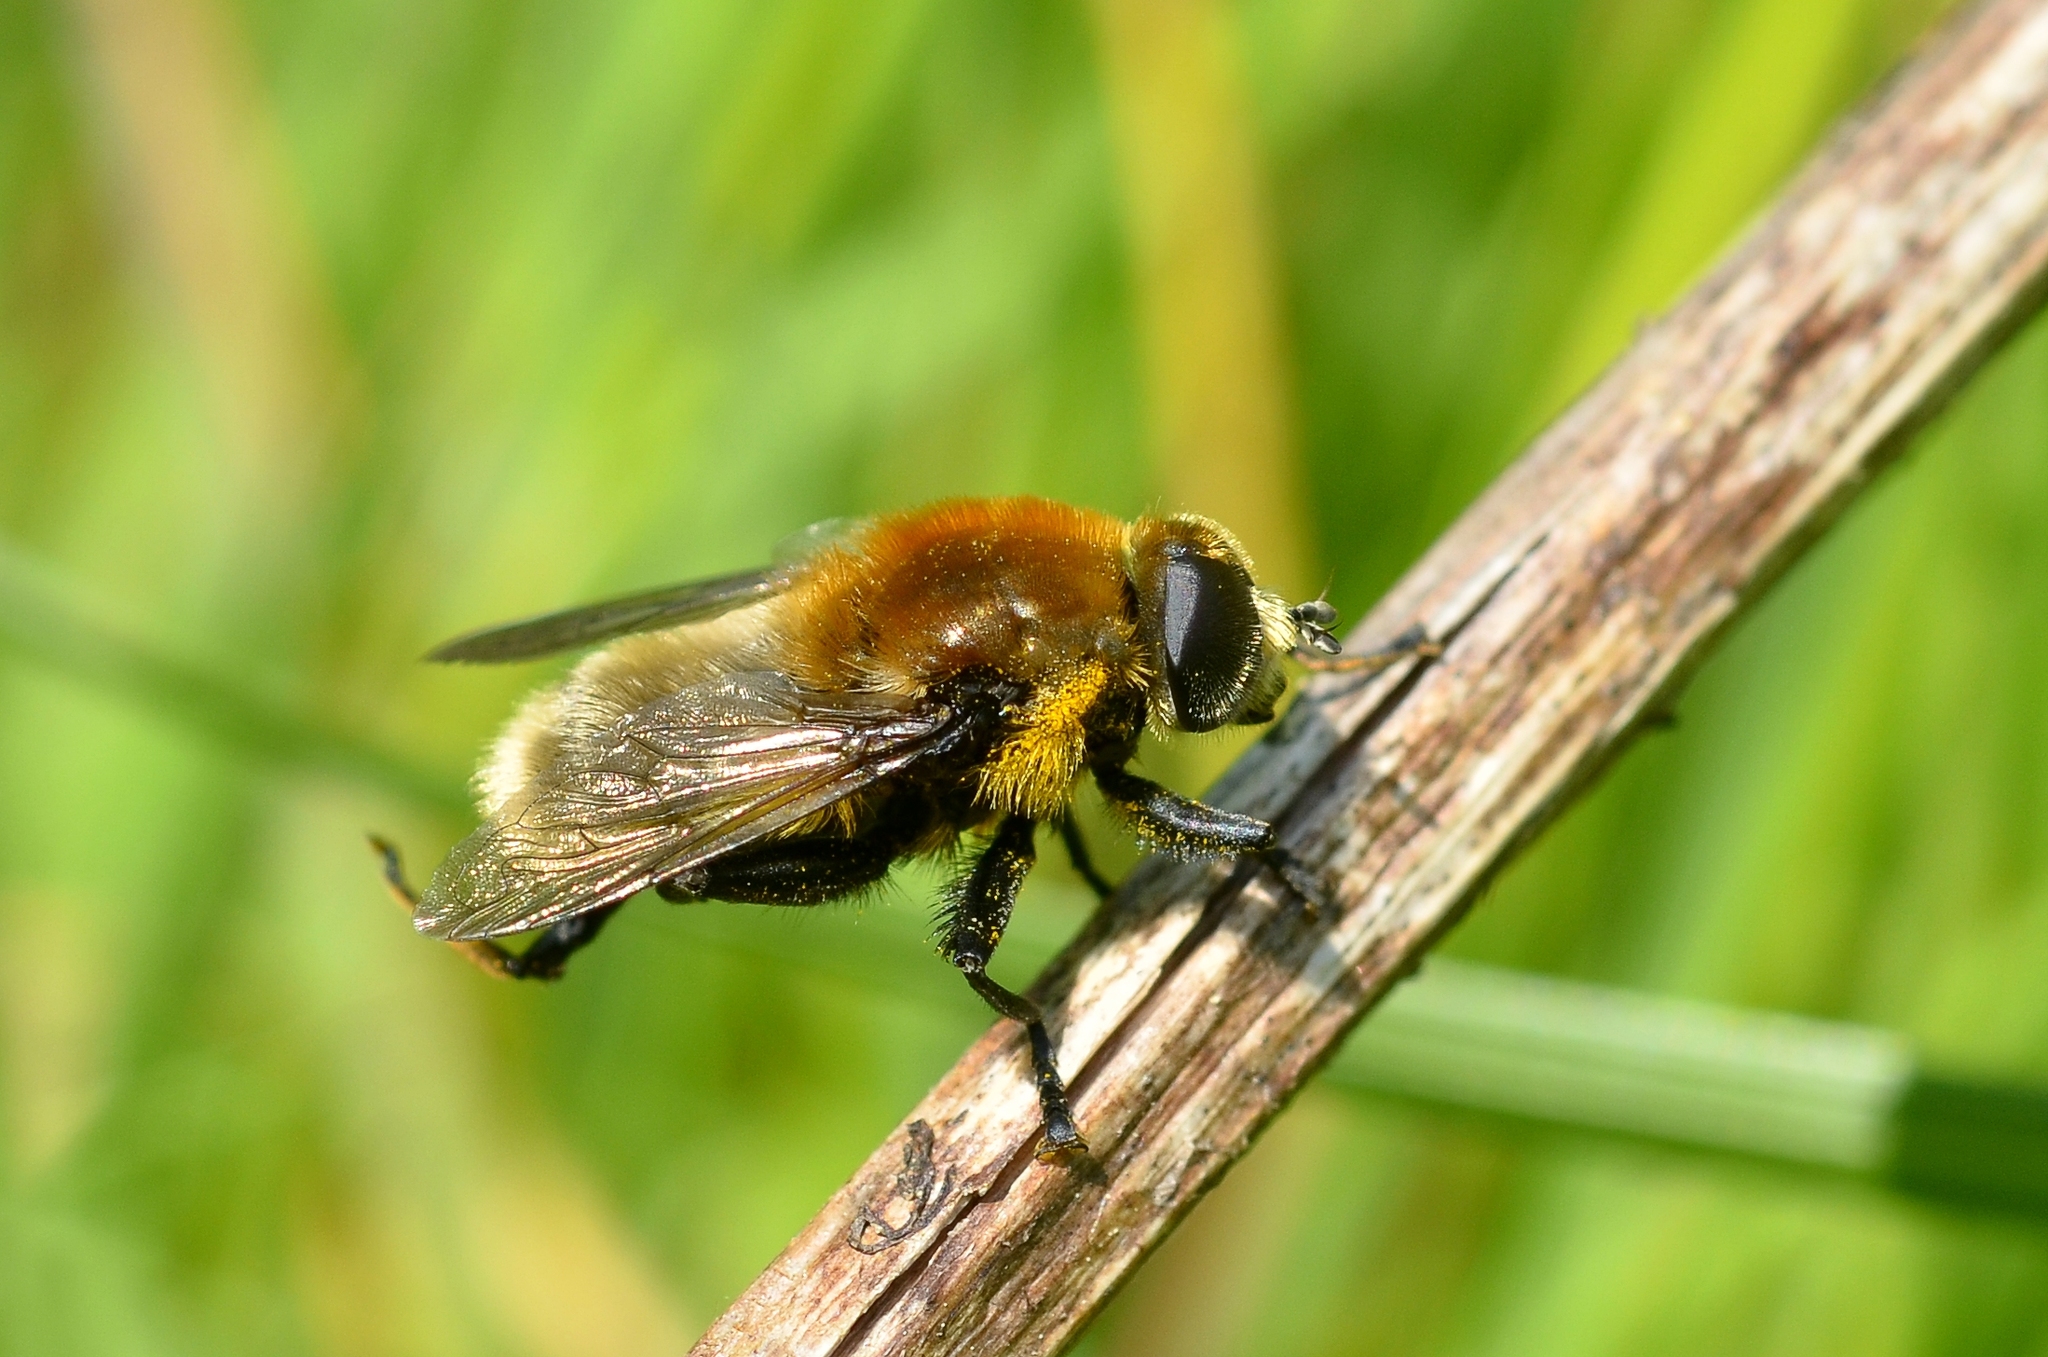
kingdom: Animalia
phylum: Arthropoda
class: Insecta
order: Diptera
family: Syrphidae
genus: Merodon
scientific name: Merodon equestris
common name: Greater bulb-fly
